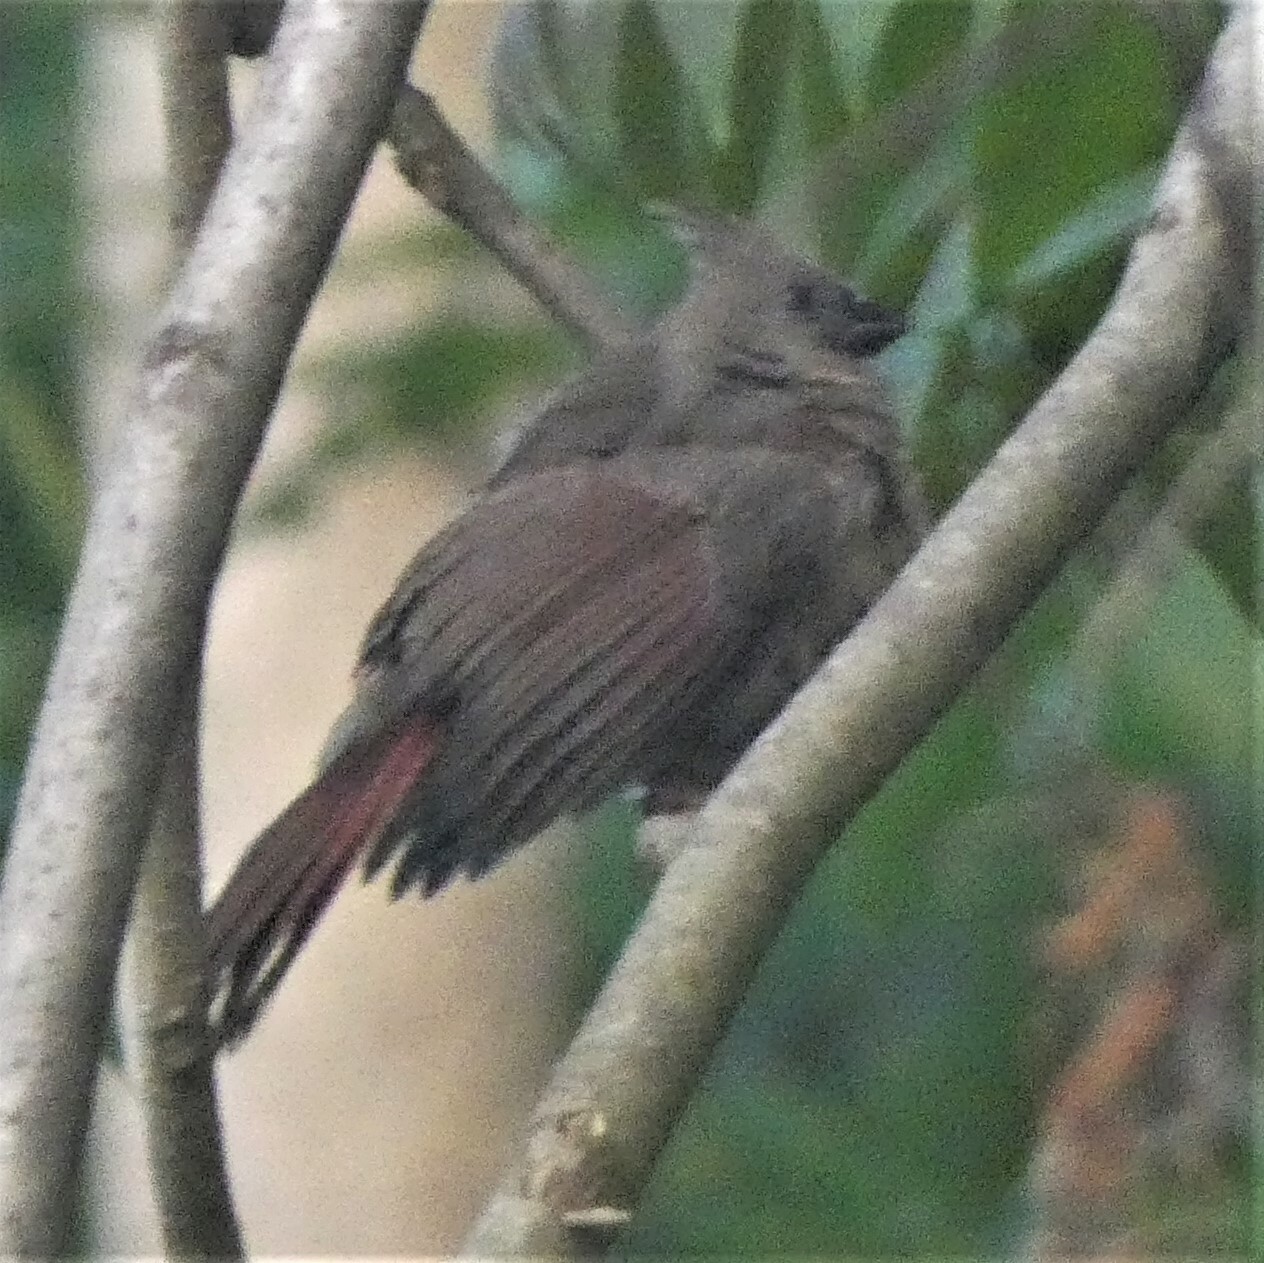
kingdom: Animalia
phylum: Chordata
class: Aves
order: Passeriformes
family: Cardinalidae
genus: Cardinalis
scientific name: Cardinalis cardinalis
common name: Northern cardinal
